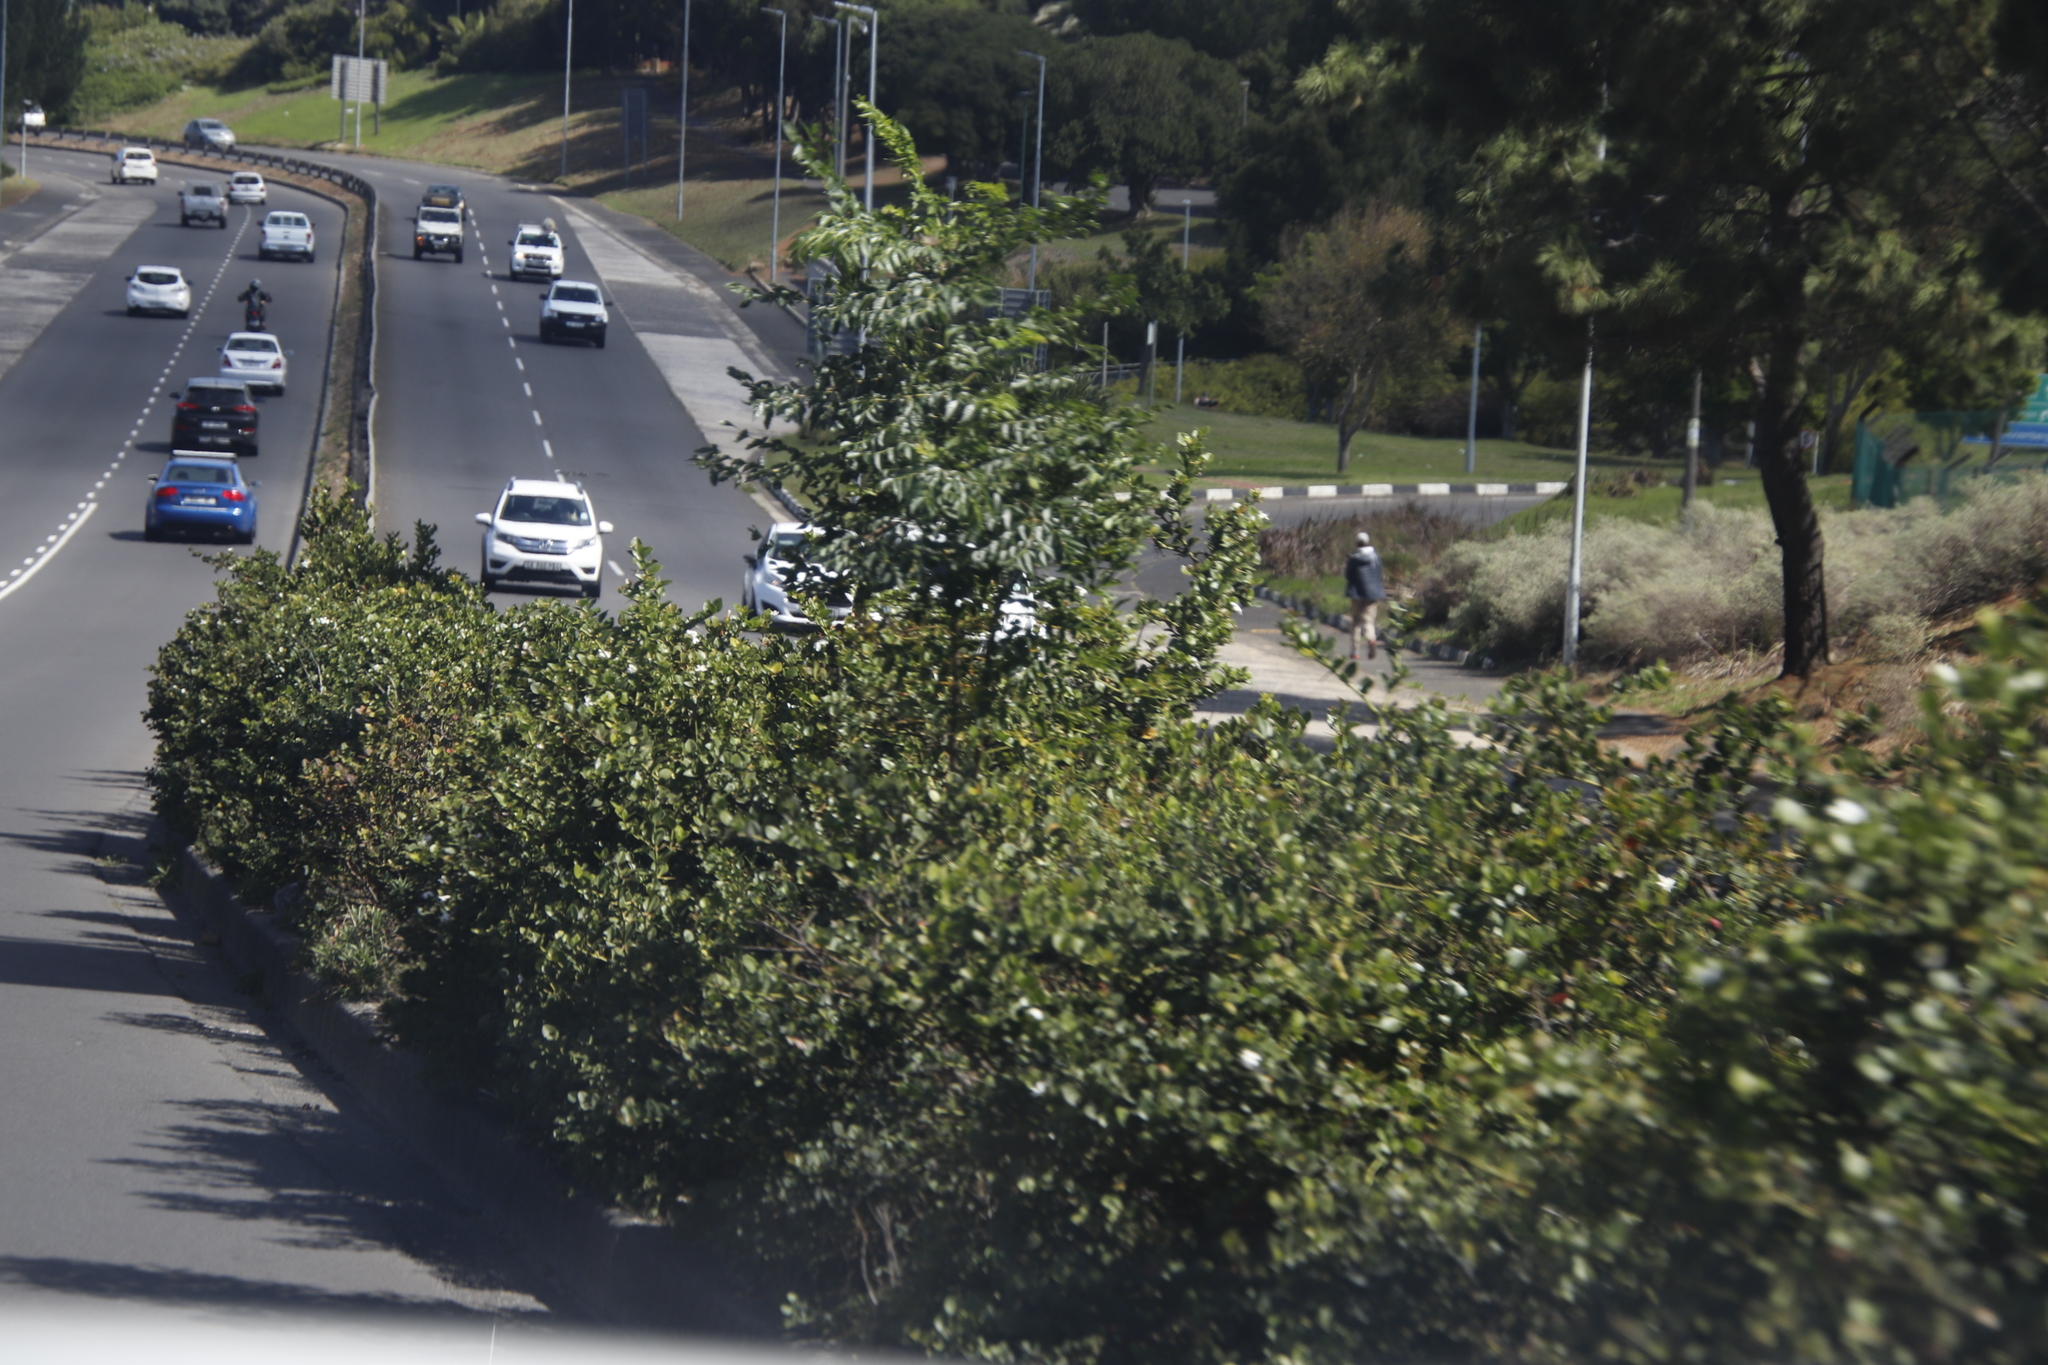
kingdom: Plantae
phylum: Tracheophyta
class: Magnoliopsida
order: Sapindales
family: Meliaceae
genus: Melia
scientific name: Melia azedarach
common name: Chinaberrytree
